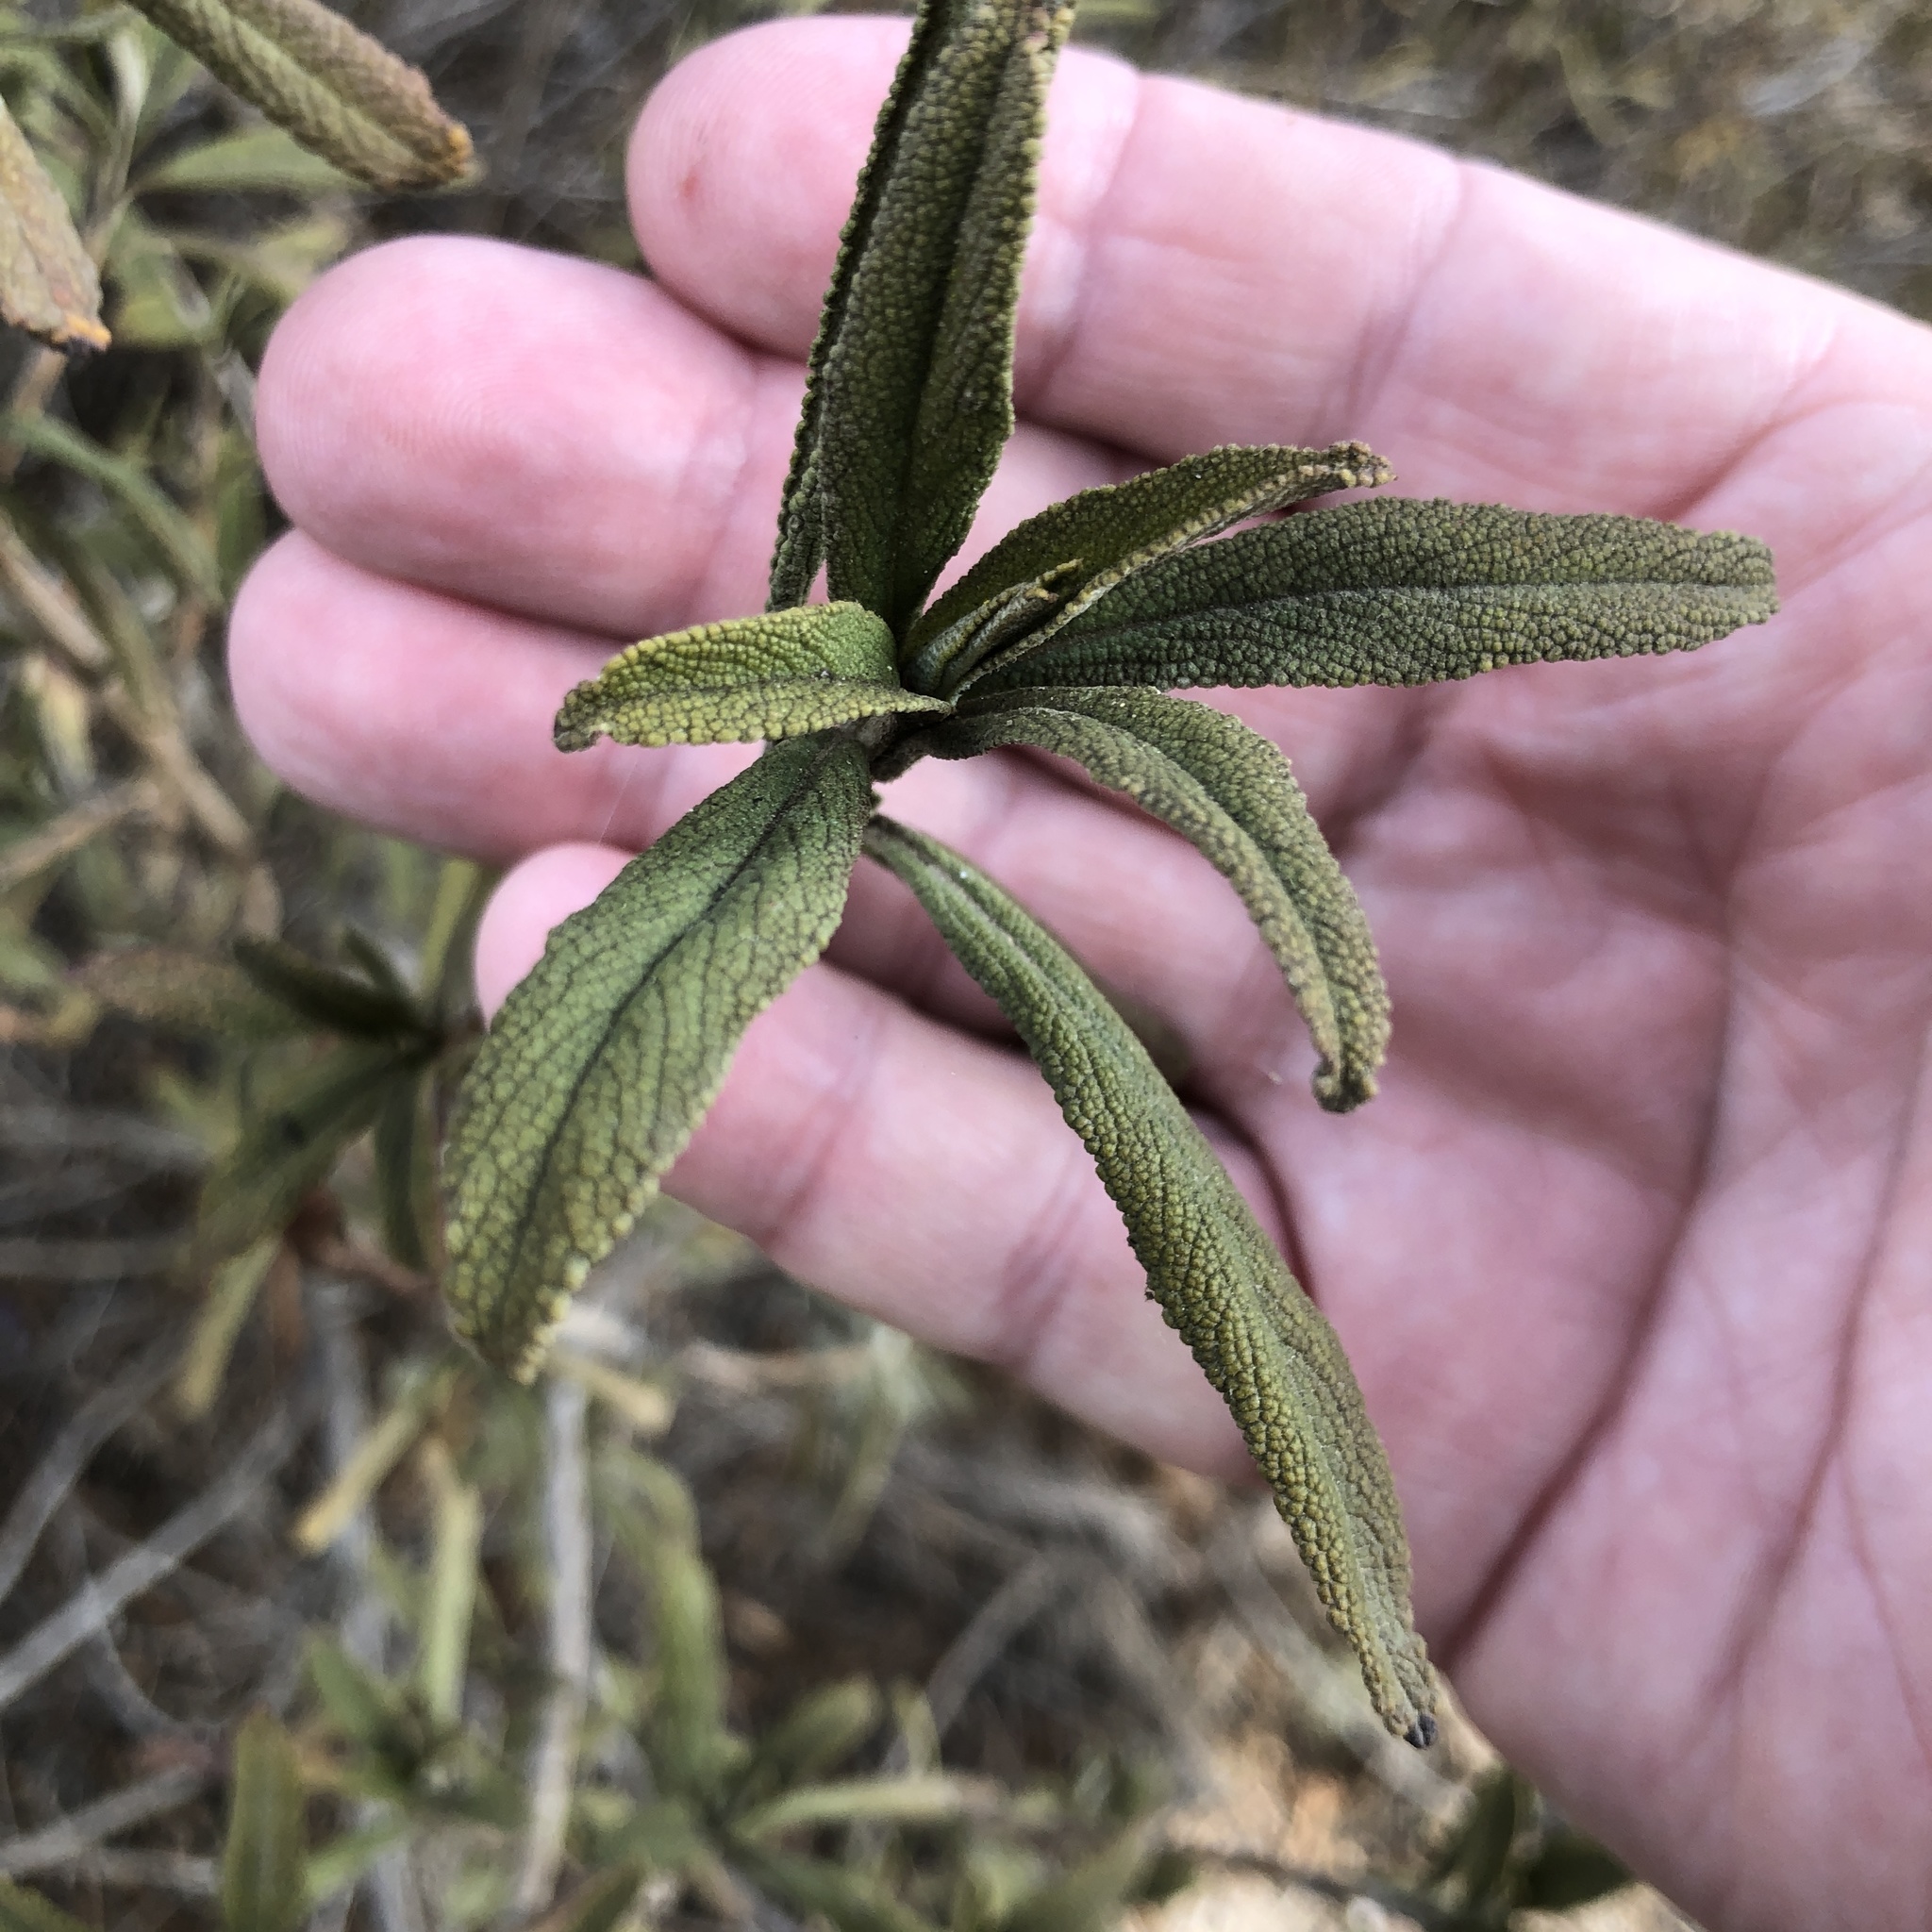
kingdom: Plantae
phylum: Tracheophyta
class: Magnoliopsida
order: Lamiales
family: Lamiaceae
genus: Salvia
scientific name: Salvia mellifera
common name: Black sage
